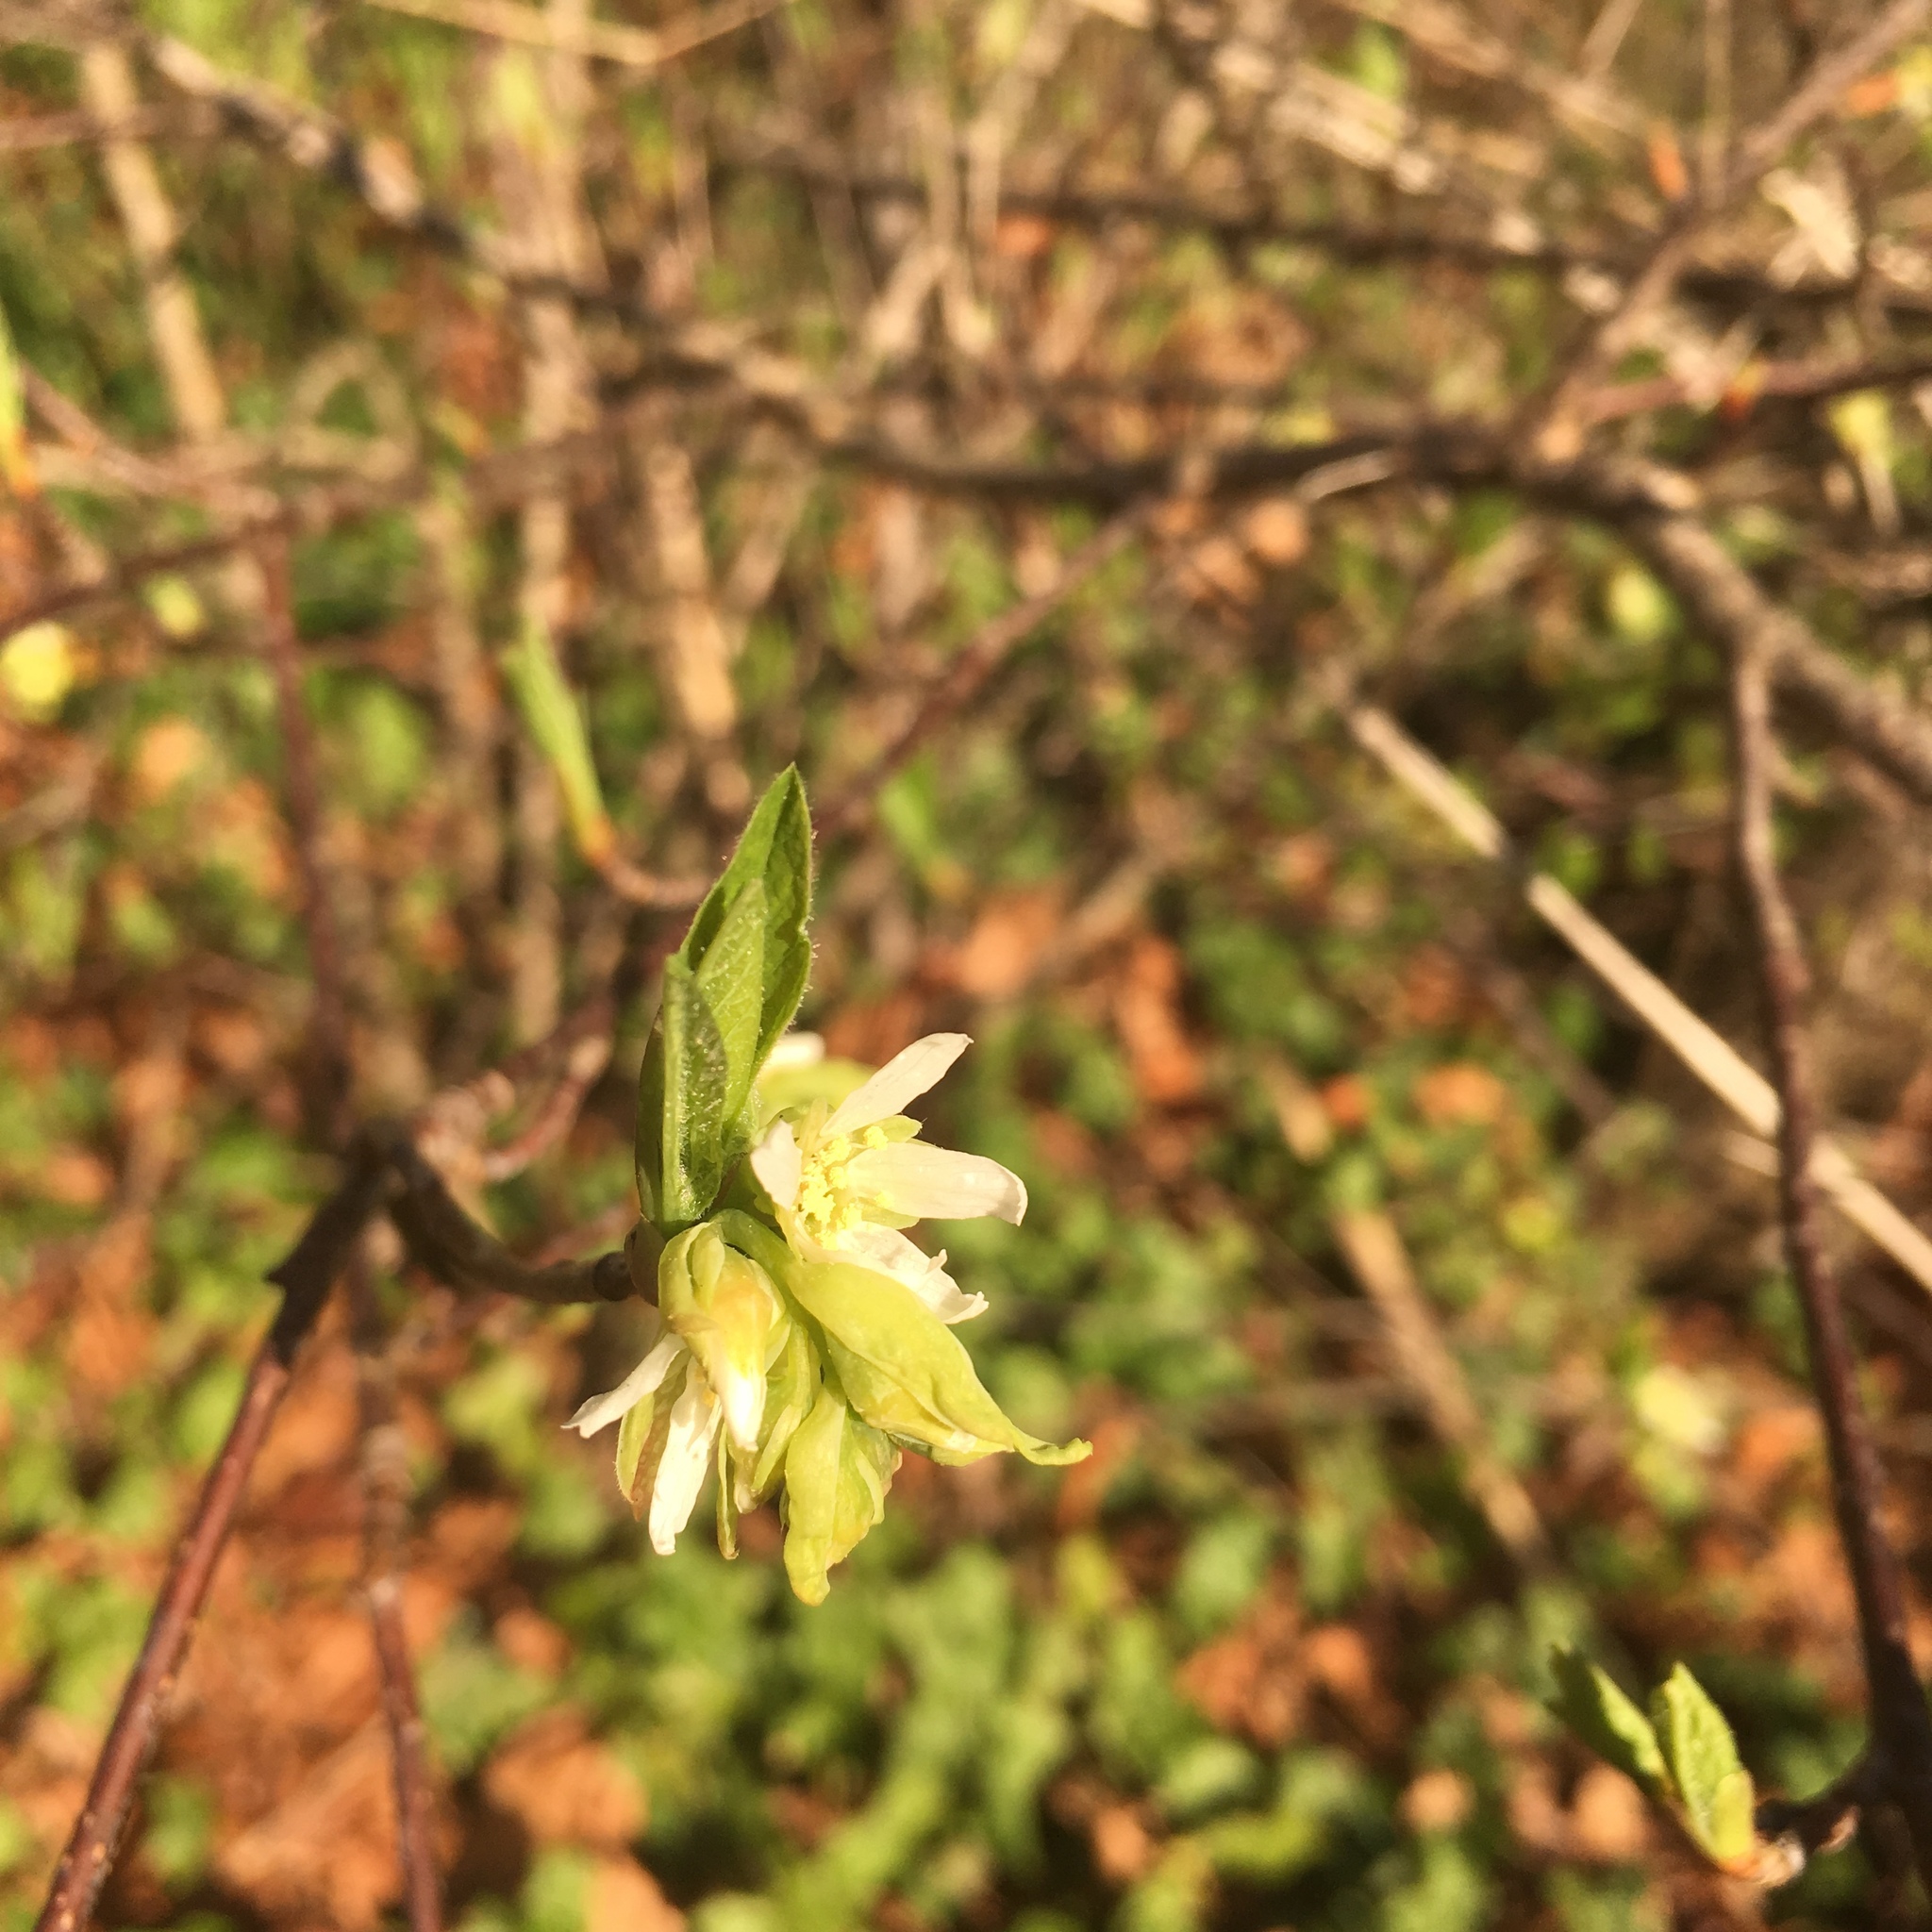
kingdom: Plantae
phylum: Tracheophyta
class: Magnoliopsida
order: Rosales
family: Rosaceae
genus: Oemleria
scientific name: Oemleria cerasiformis
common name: Osoberry
